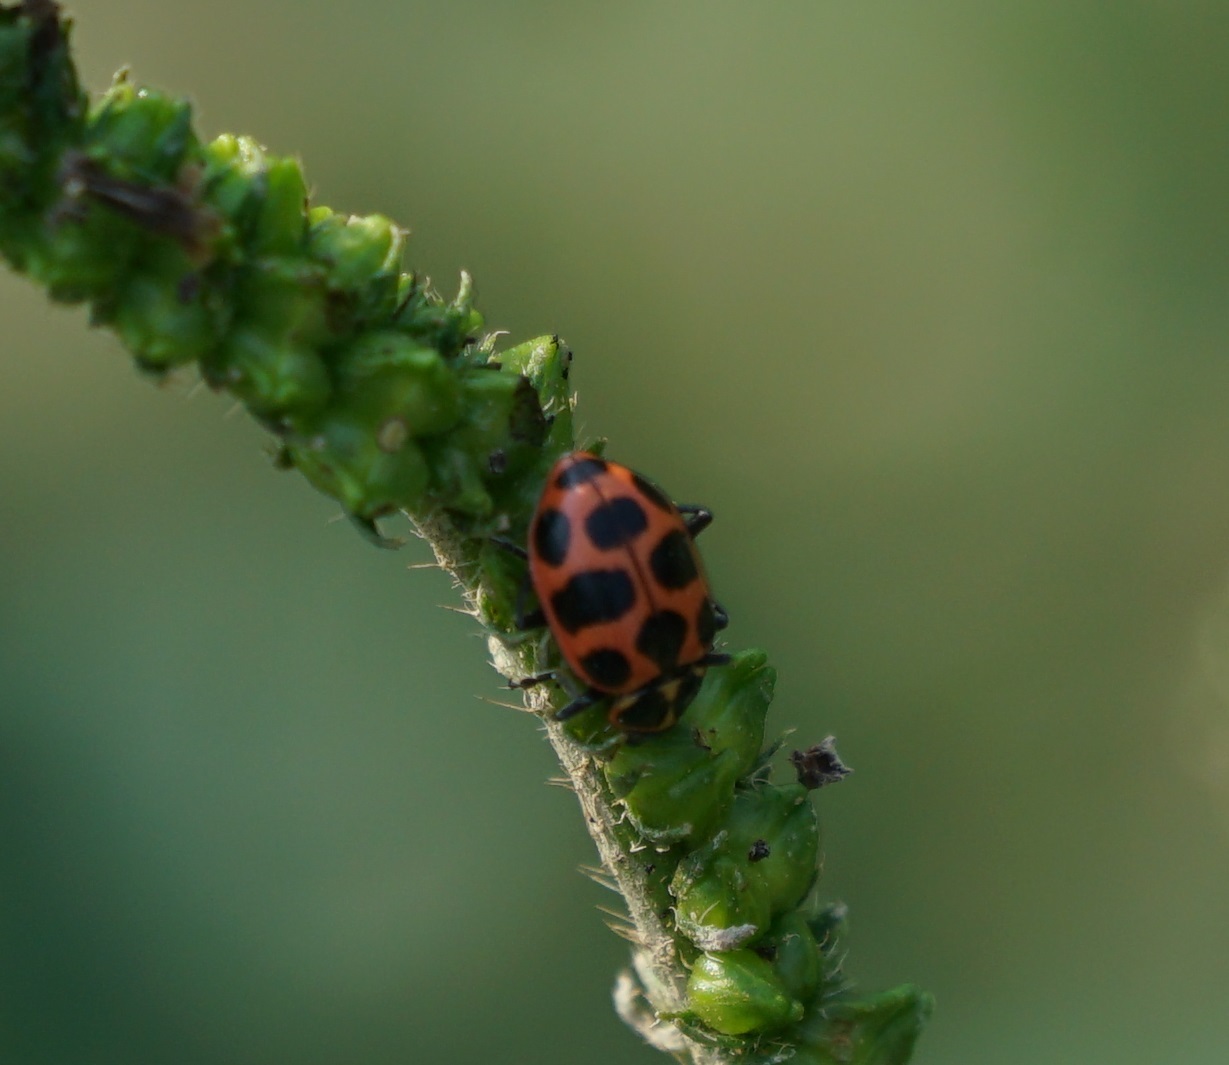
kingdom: Animalia
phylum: Arthropoda
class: Insecta
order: Coleoptera
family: Coccinellidae
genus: Coleomegilla
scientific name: Coleomegilla maculata
